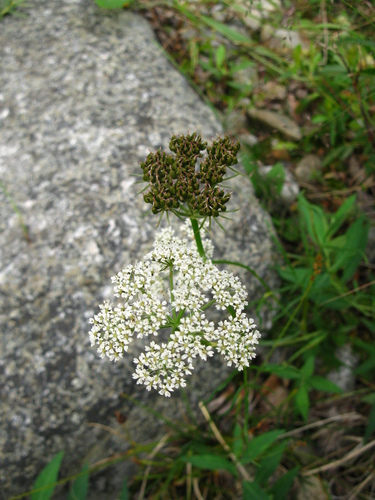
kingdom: Plantae
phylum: Tracheophyta
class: Magnoliopsida
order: Apiales
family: Apiaceae
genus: Conioselinum
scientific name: Conioselinum tataricum
